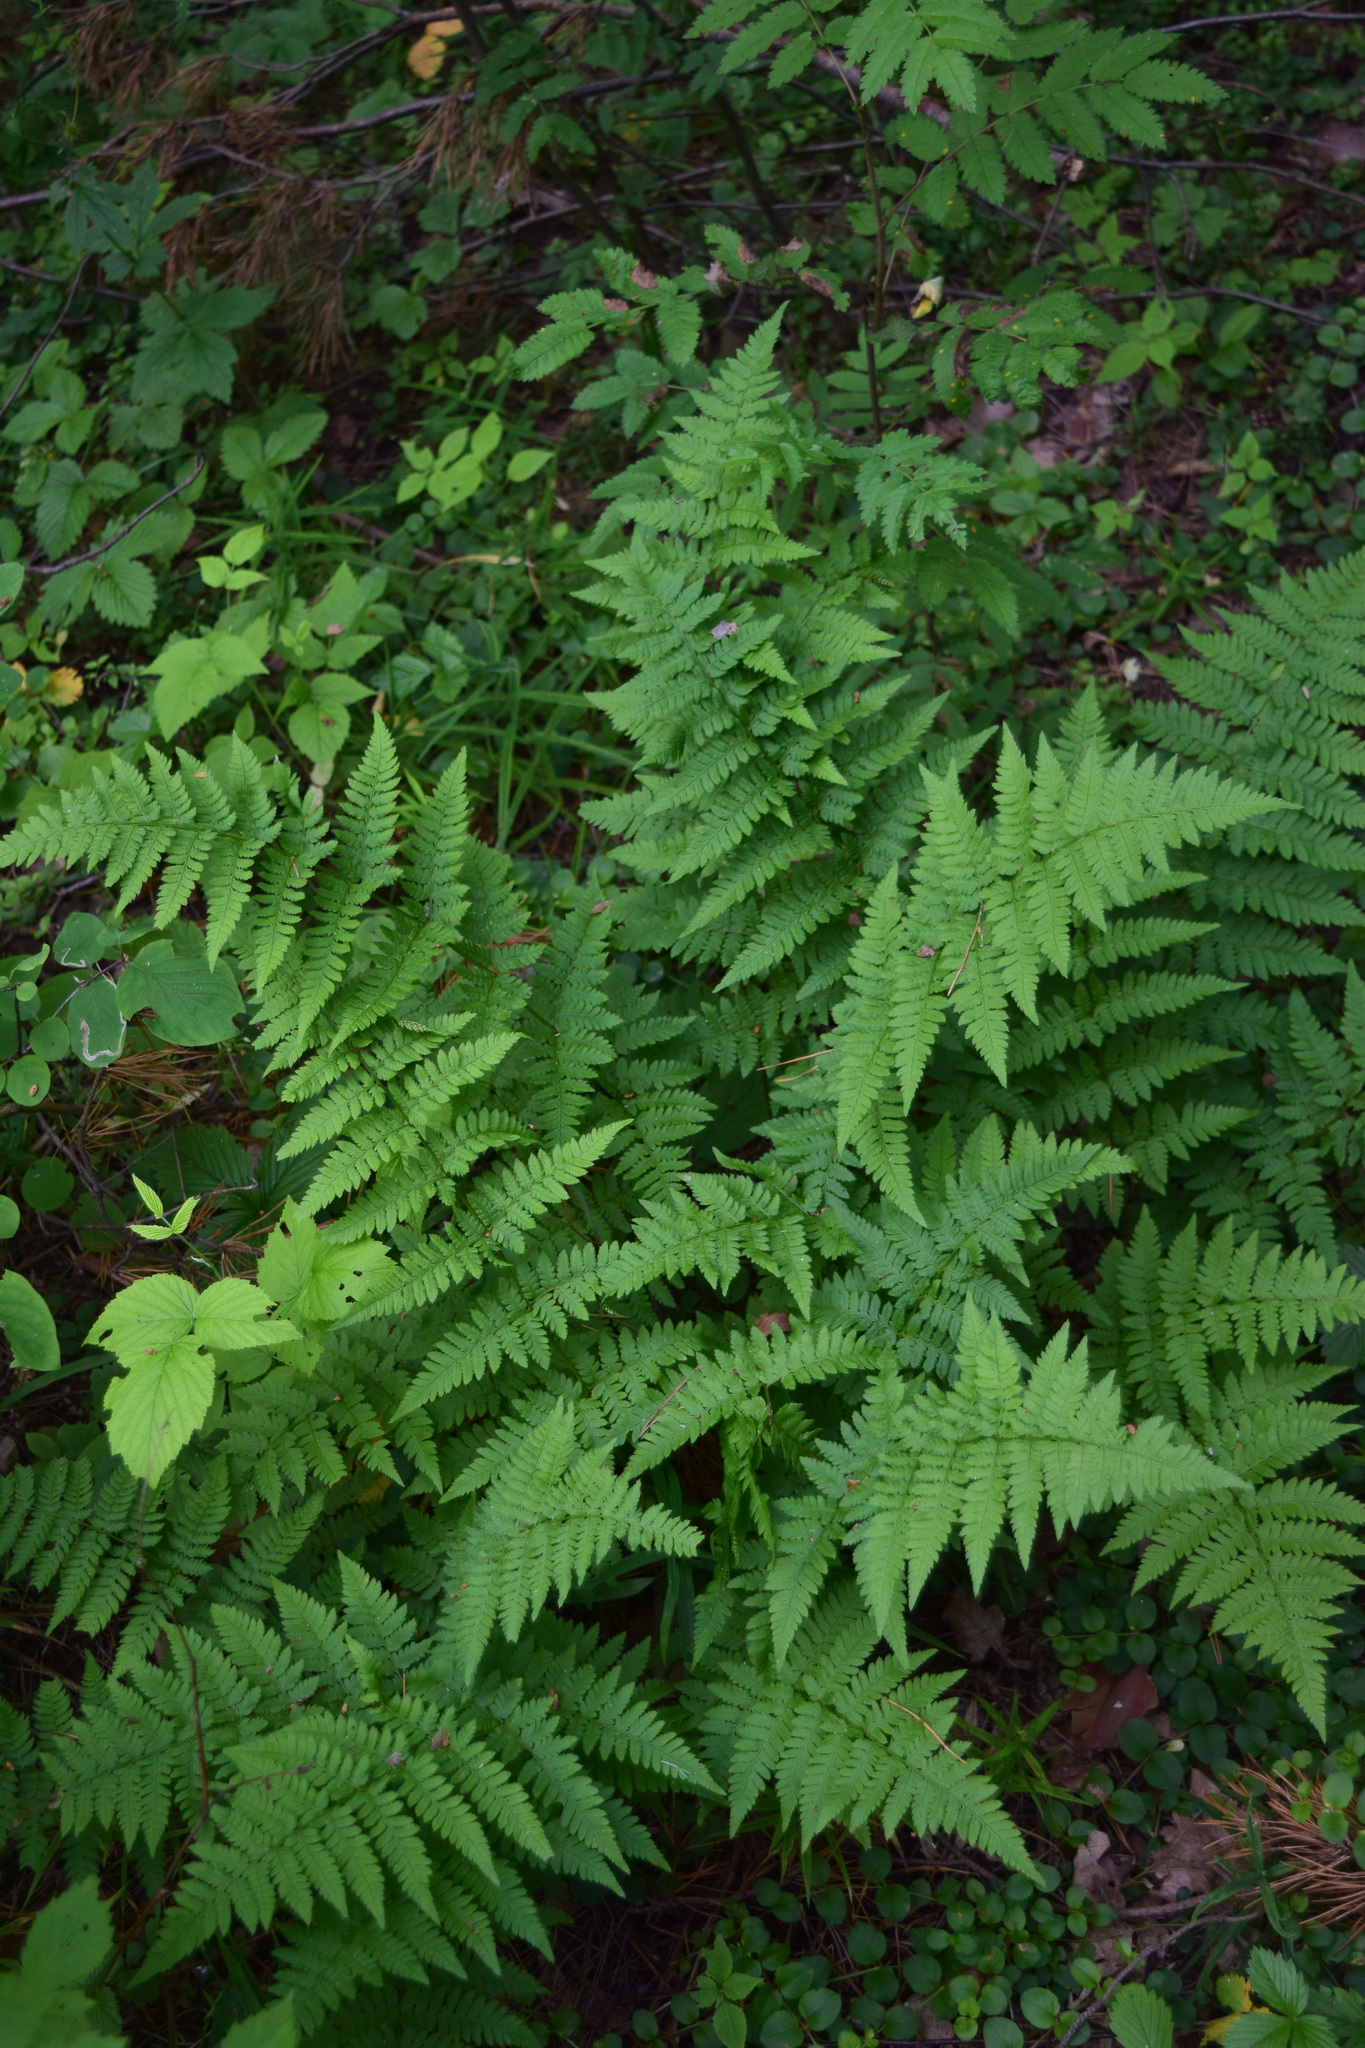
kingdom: Plantae
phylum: Tracheophyta
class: Polypodiopsida
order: Polypodiales
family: Dryopteridaceae
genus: Dryopteris
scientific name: Dryopteris carthusiana
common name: Narrow buckler-fern
